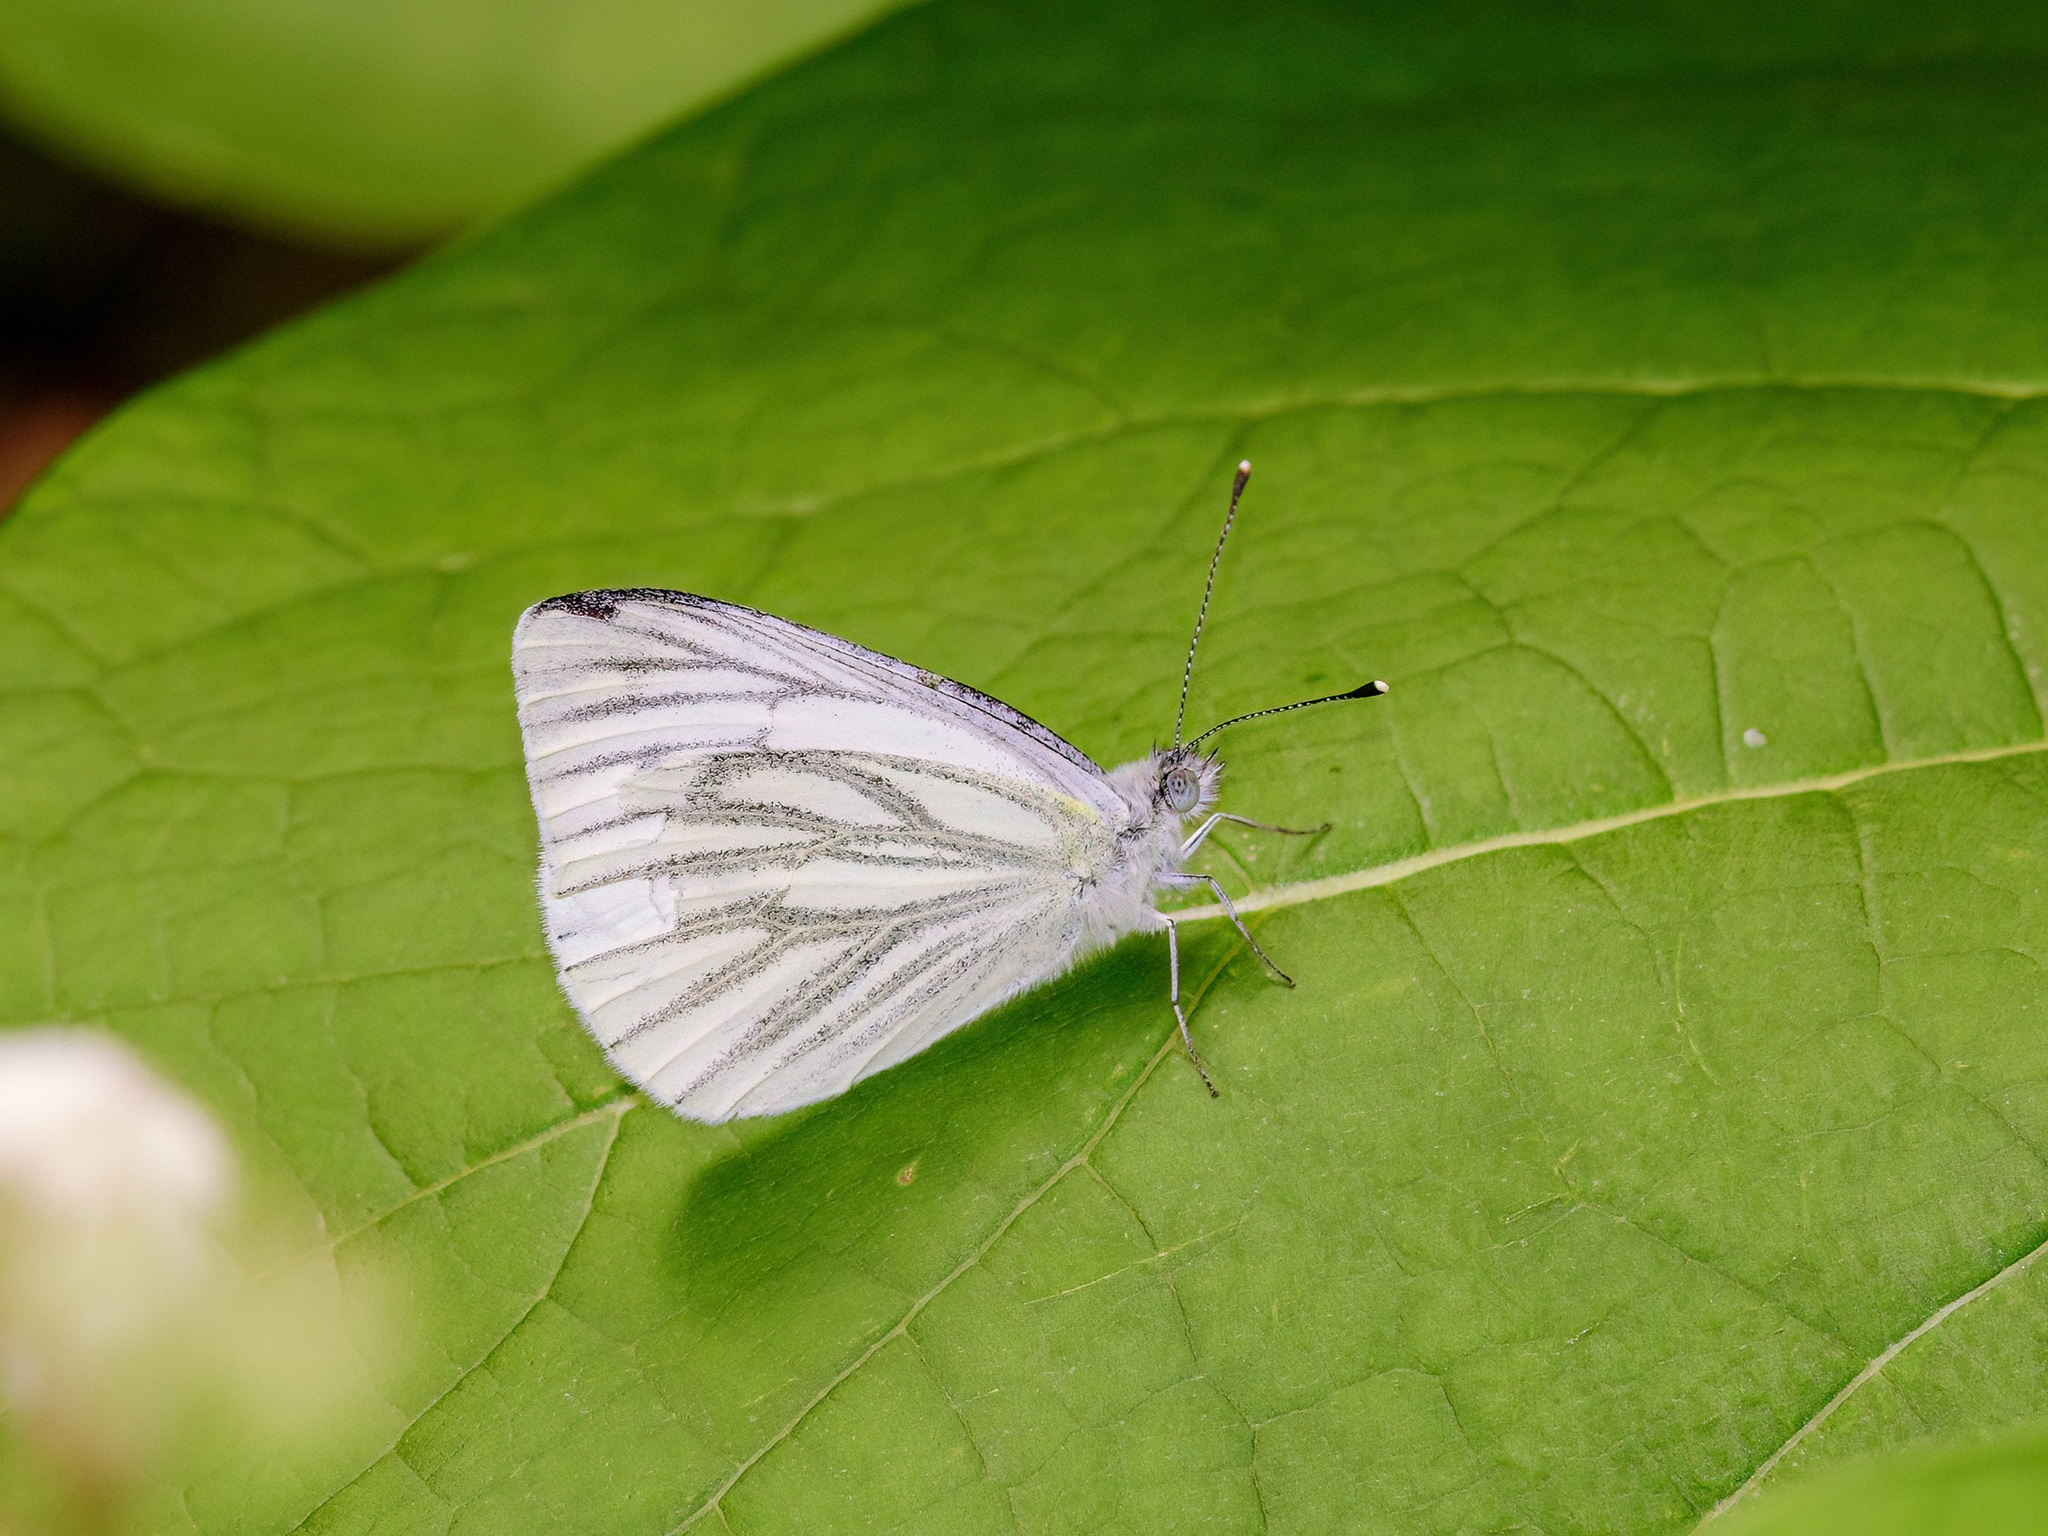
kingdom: Animalia
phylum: Arthropoda
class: Insecta
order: Lepidoptera
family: Pieridae
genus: Pieris
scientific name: Pieris napi
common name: Green-veined white
